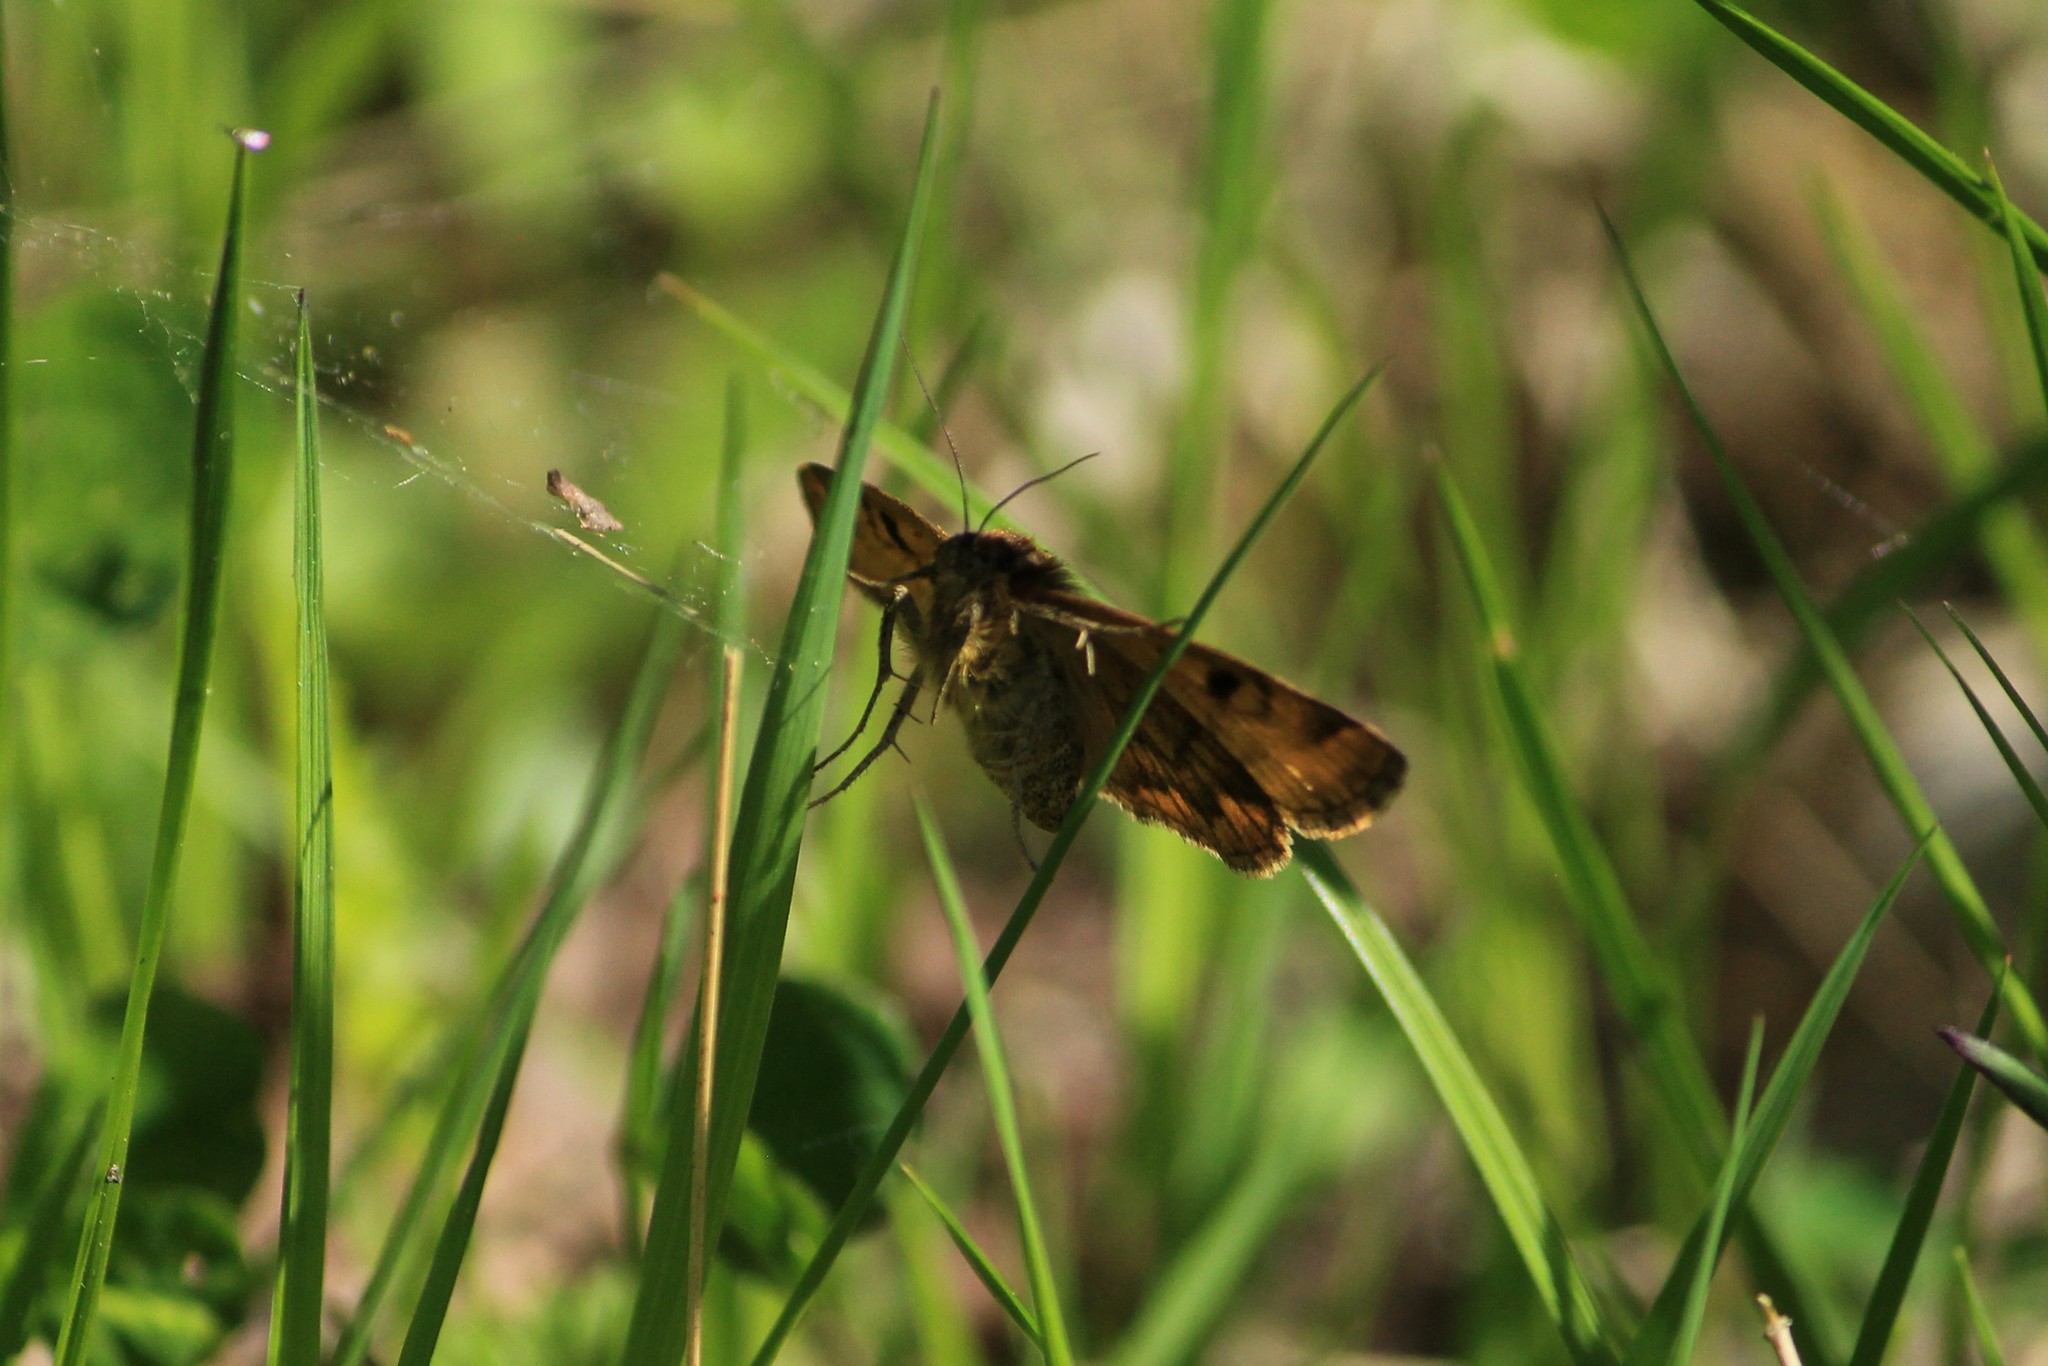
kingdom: Animalia
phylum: Arthropoda
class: Insecta
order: Lepidoptera
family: Erebidae
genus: Euclidia
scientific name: Euclidia glyphica
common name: Burnet companion
